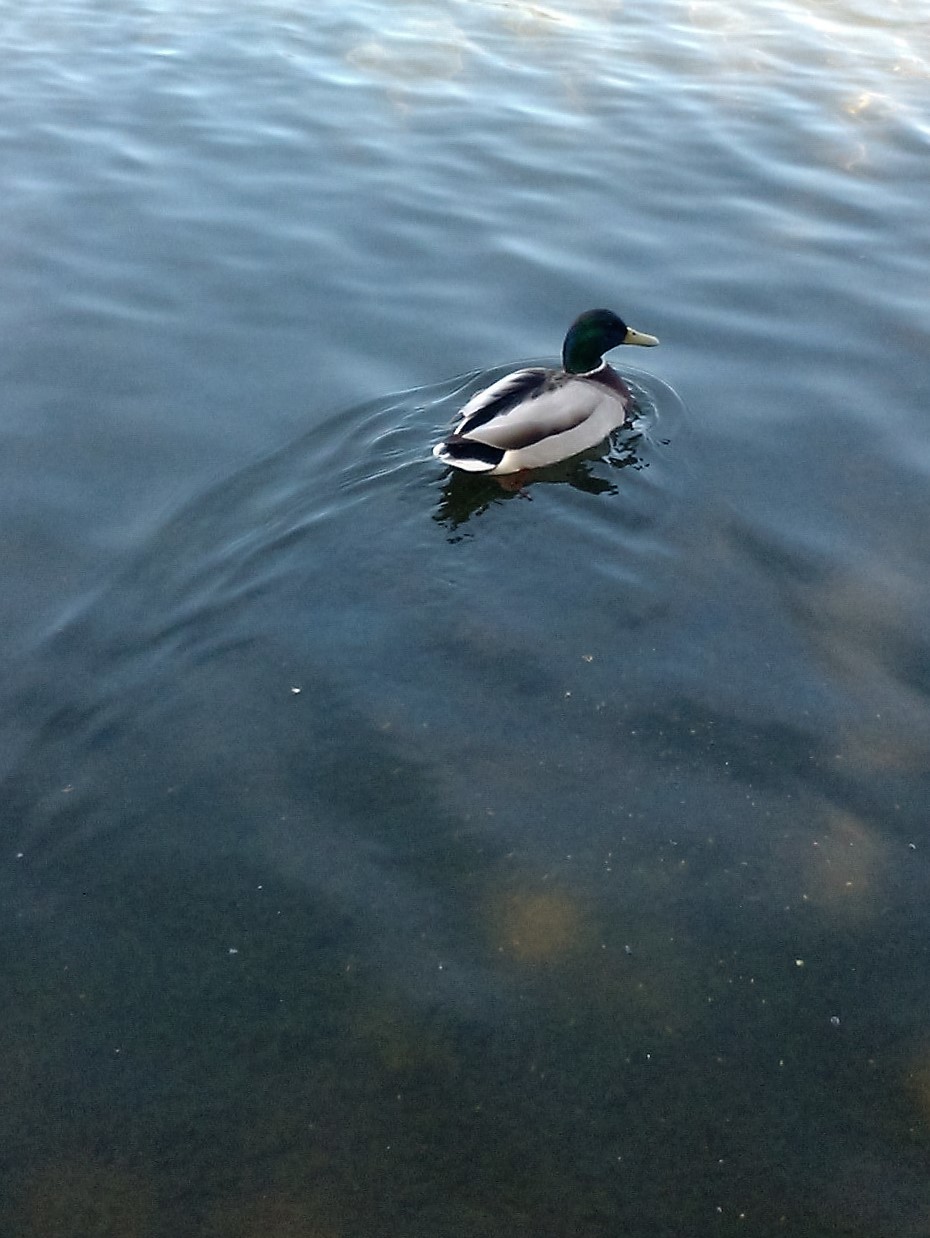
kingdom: Animalia
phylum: Chordata
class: Aves
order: Anseriformes
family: Anatidae
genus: Anas
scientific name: Anas platyrhynchos
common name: Mallard
